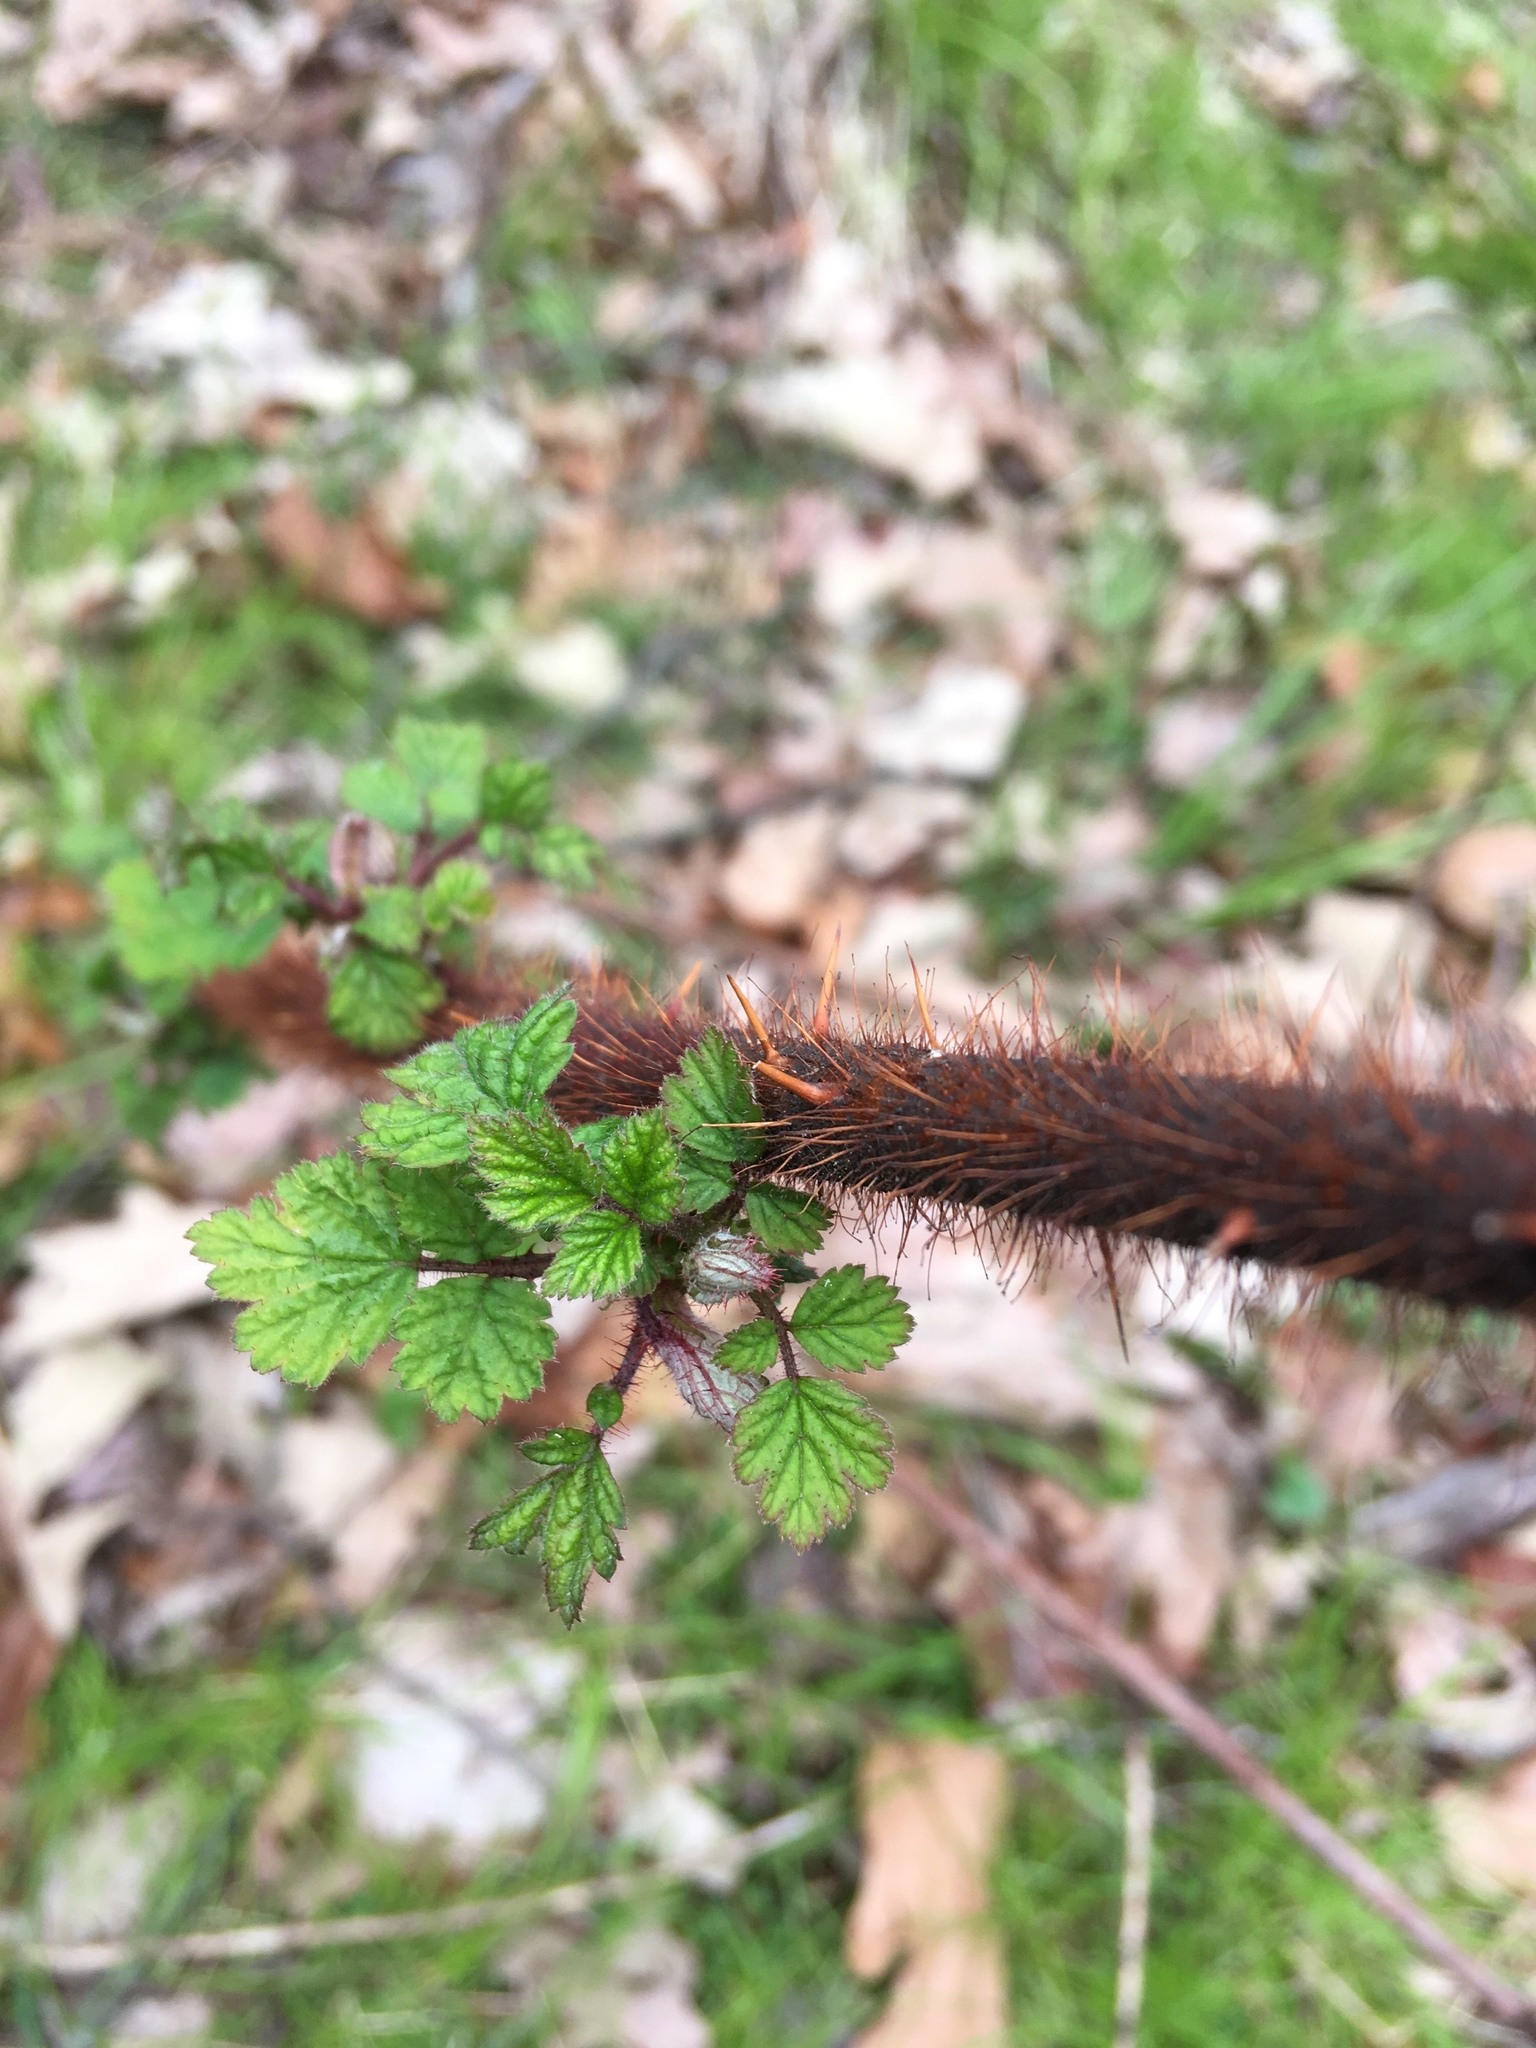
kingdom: Plantae
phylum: Tracheophyta
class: Magnoliopsida
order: Rosales
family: Rosaceae
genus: Rubus
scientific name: Rubus phoenicolasius
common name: Japanese wineberry
